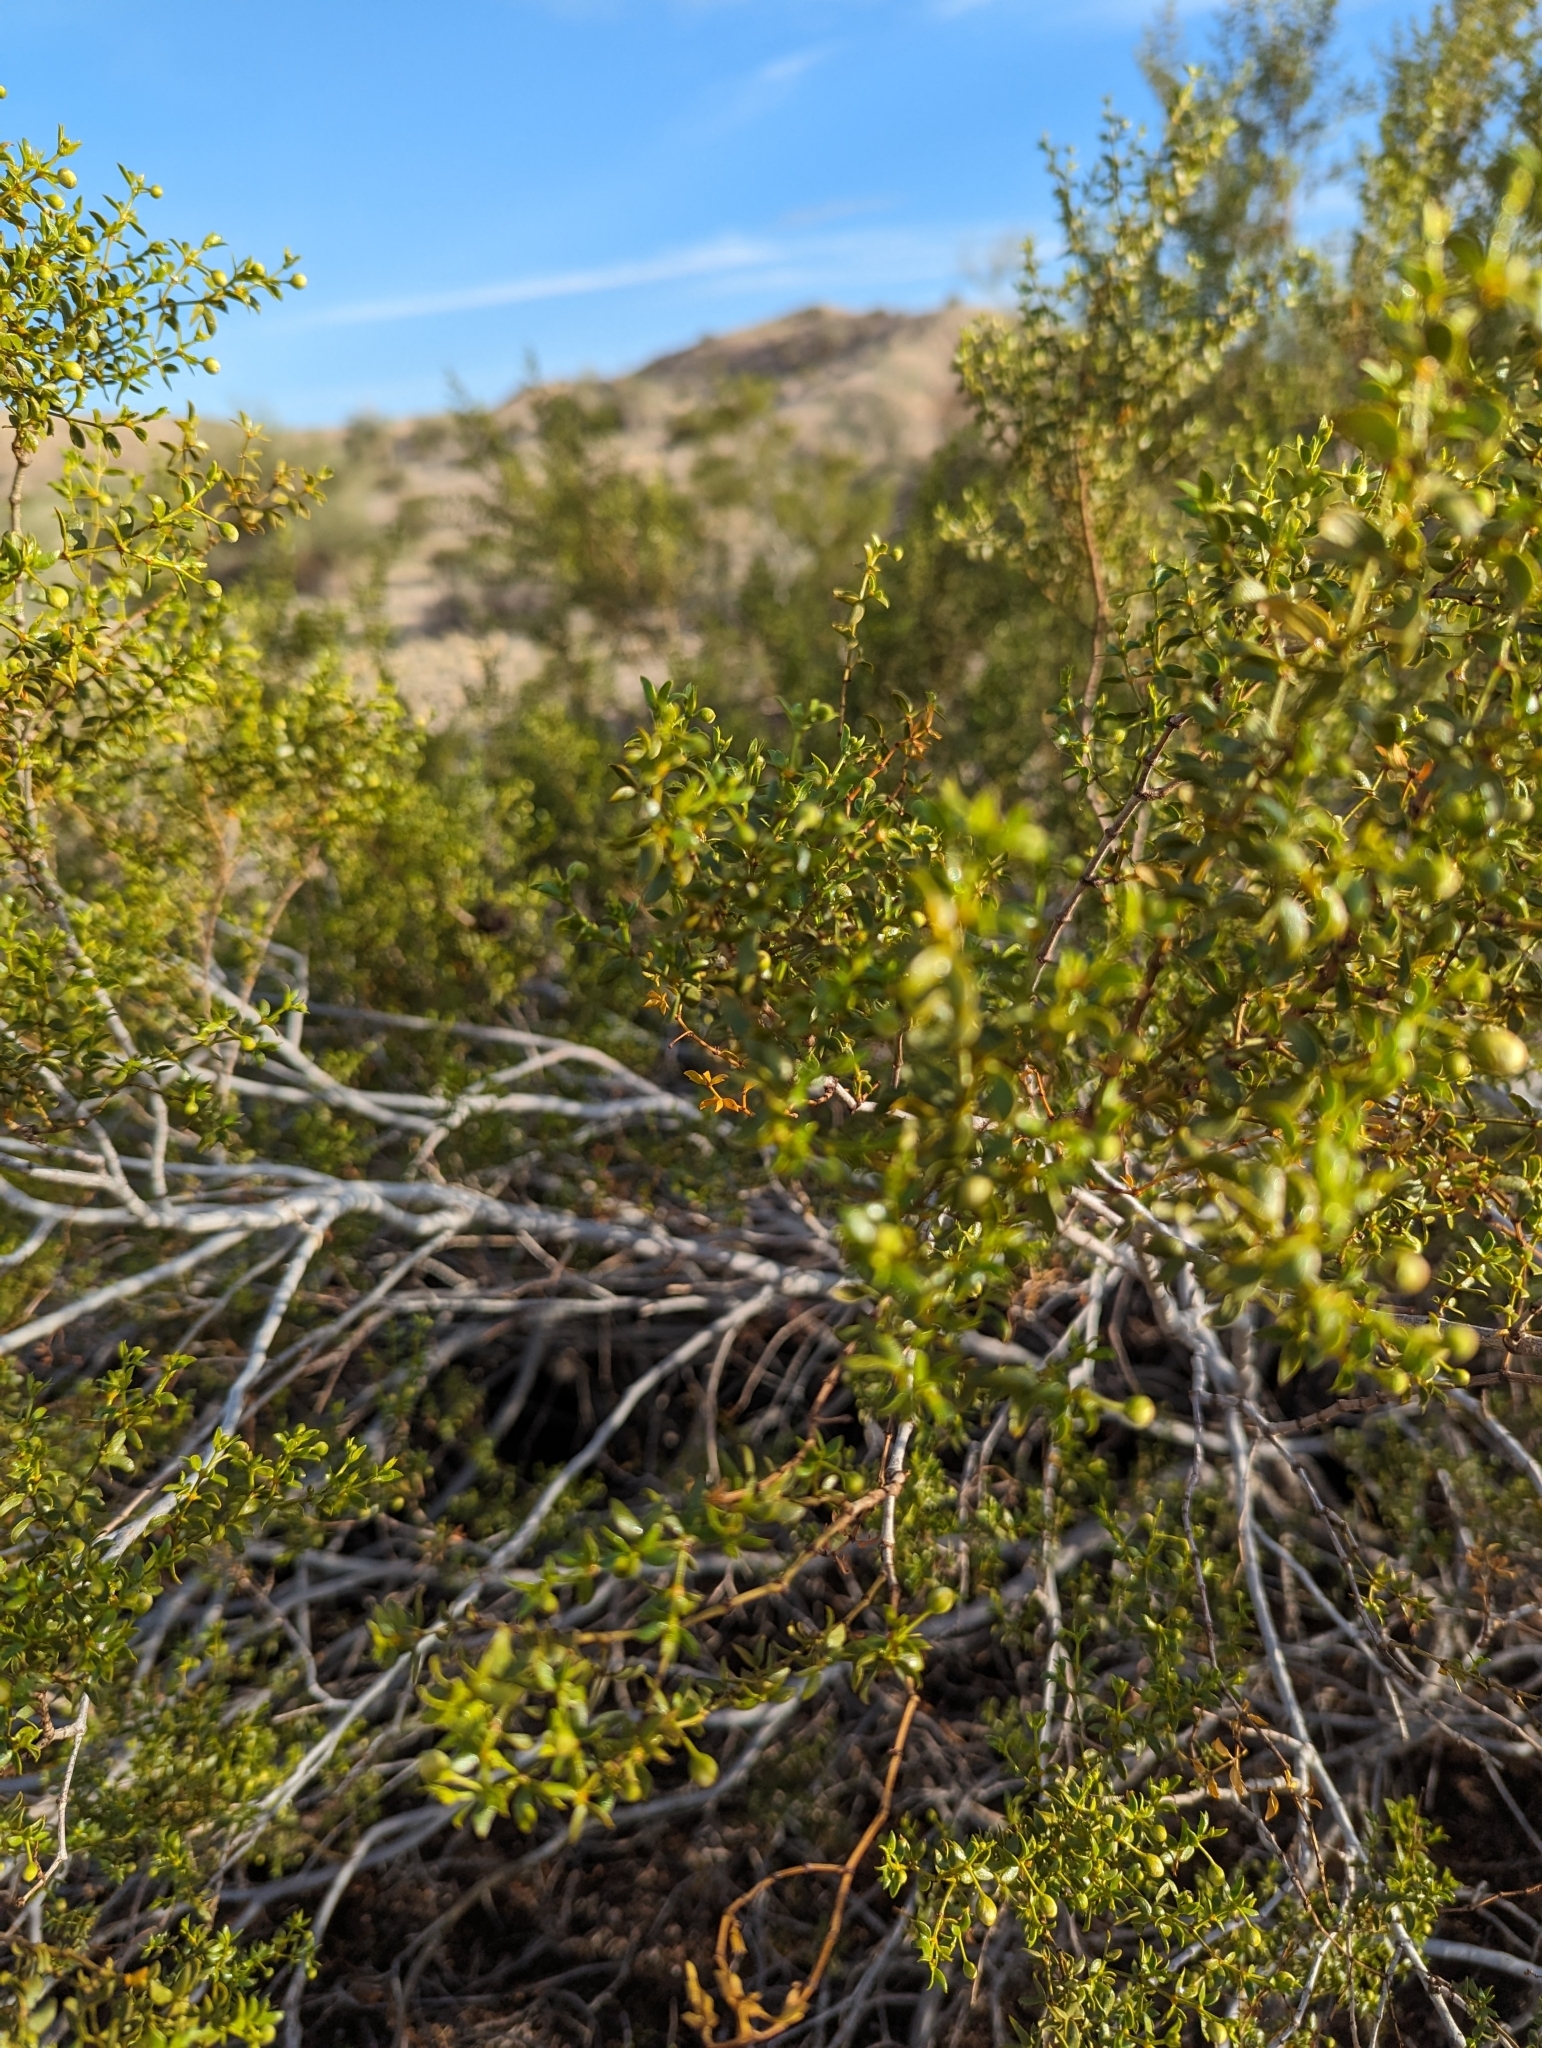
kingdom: Plantae
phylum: Tracheophyta
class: Magnoliopsida
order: Zygophyllales
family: Zygophyllaceae
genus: Larrea
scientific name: Larrea tridentata
